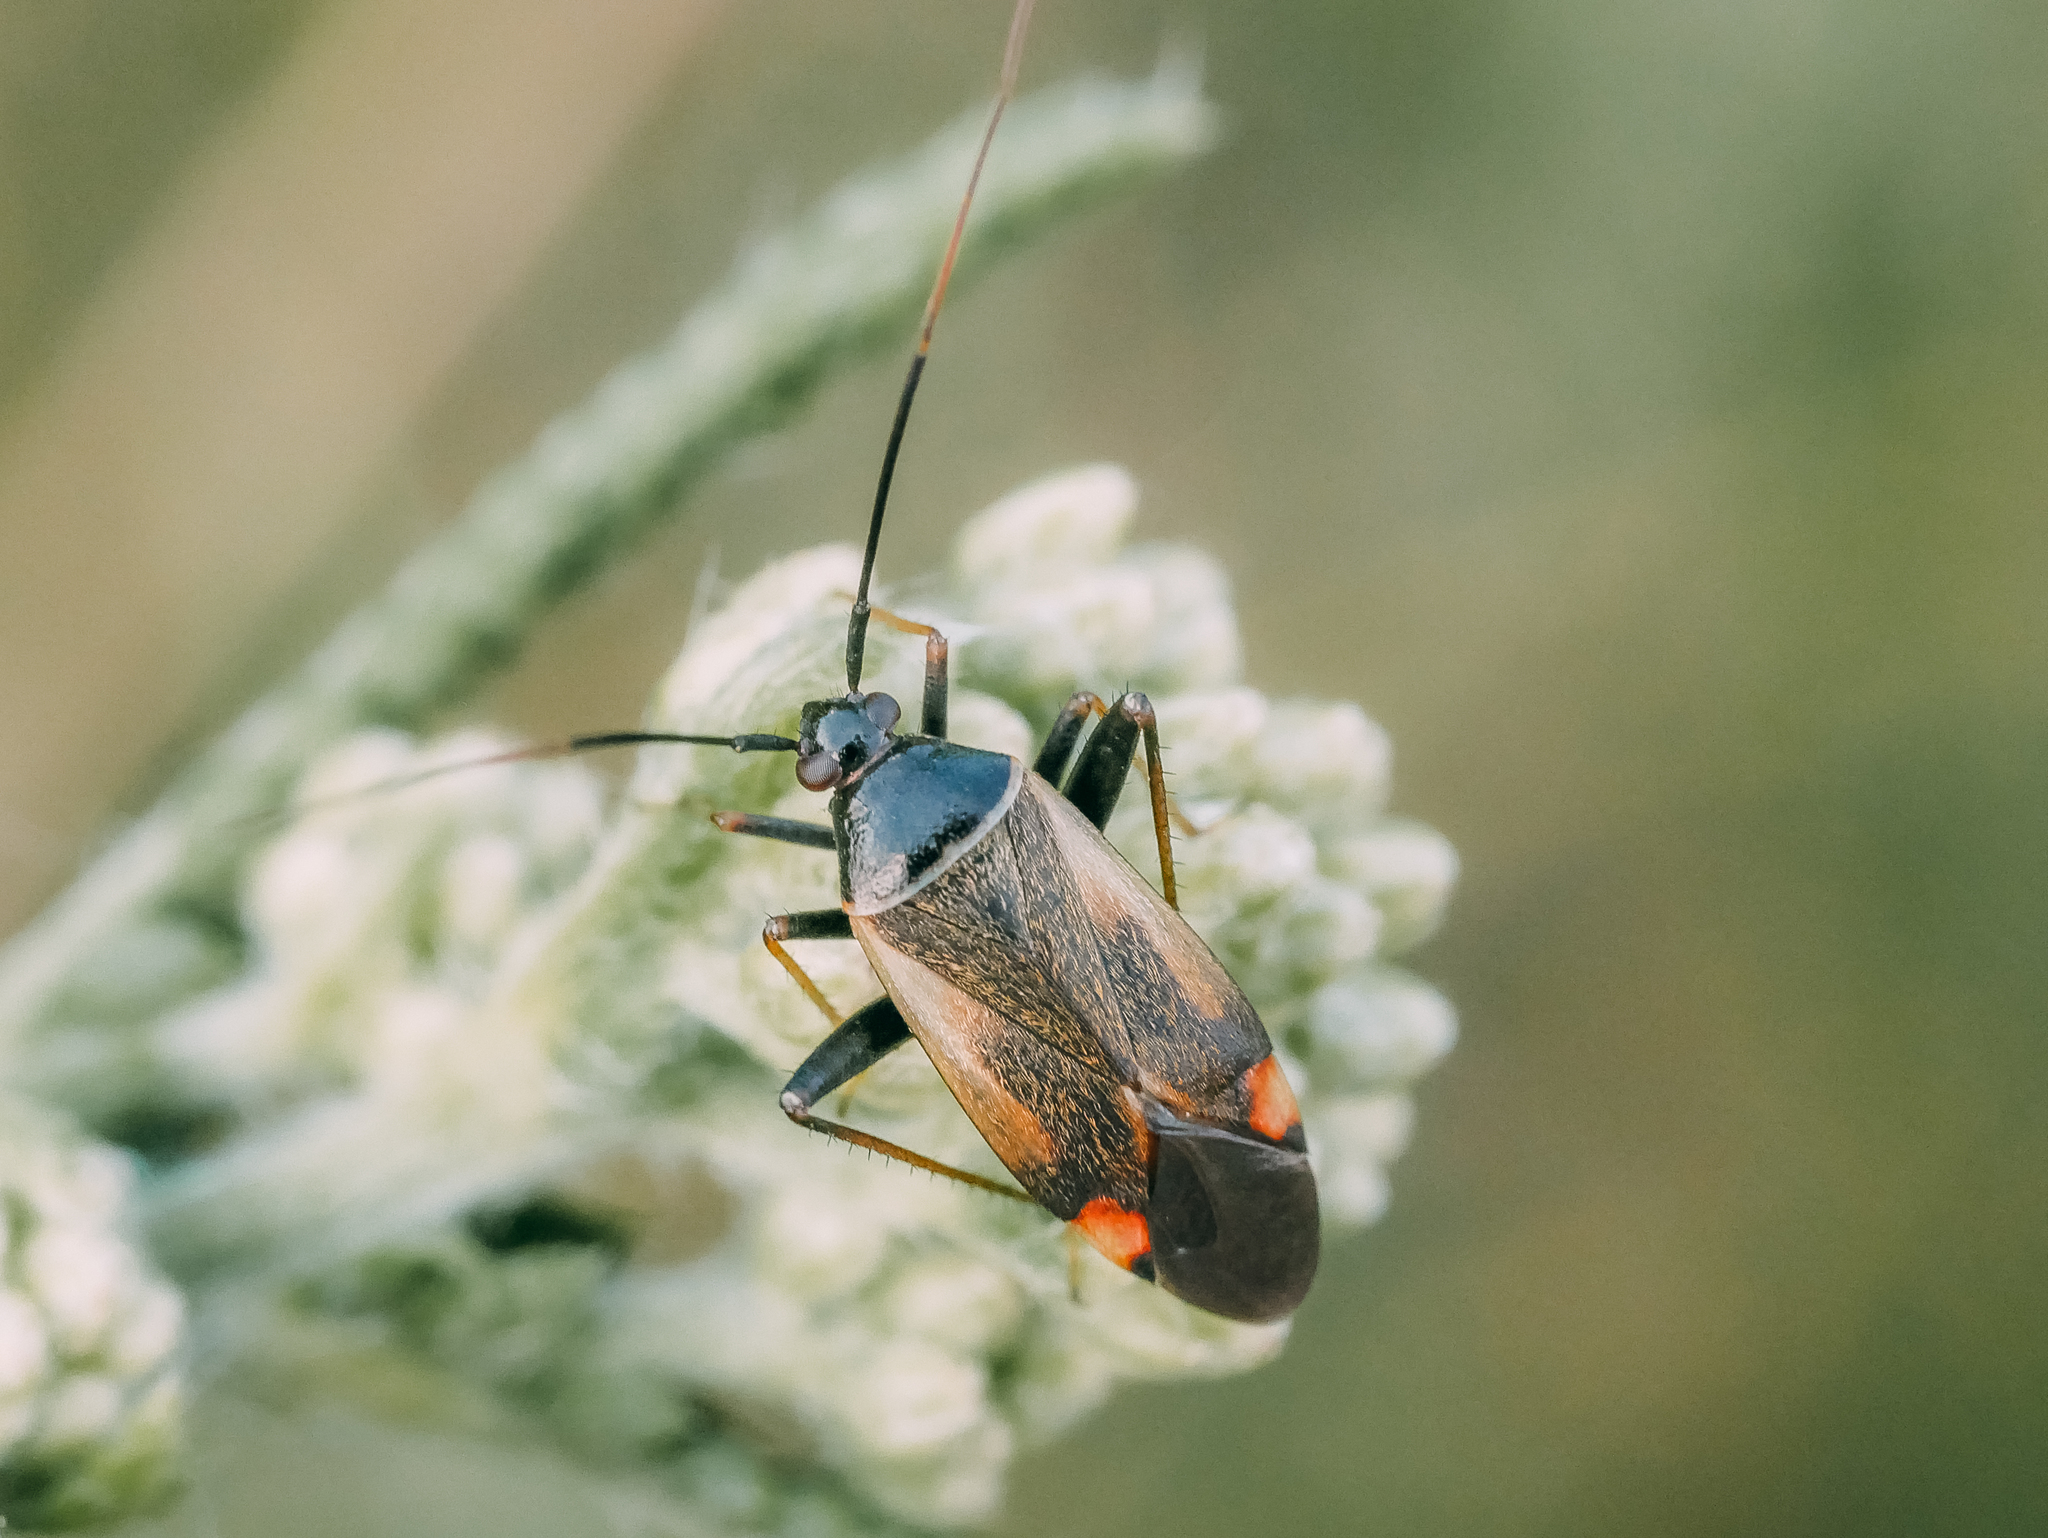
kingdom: Animalia
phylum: Arthropoda
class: Insecta
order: Hemiptera
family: Miridae
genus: Adelphocoris
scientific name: Adelphocoris seticornis
